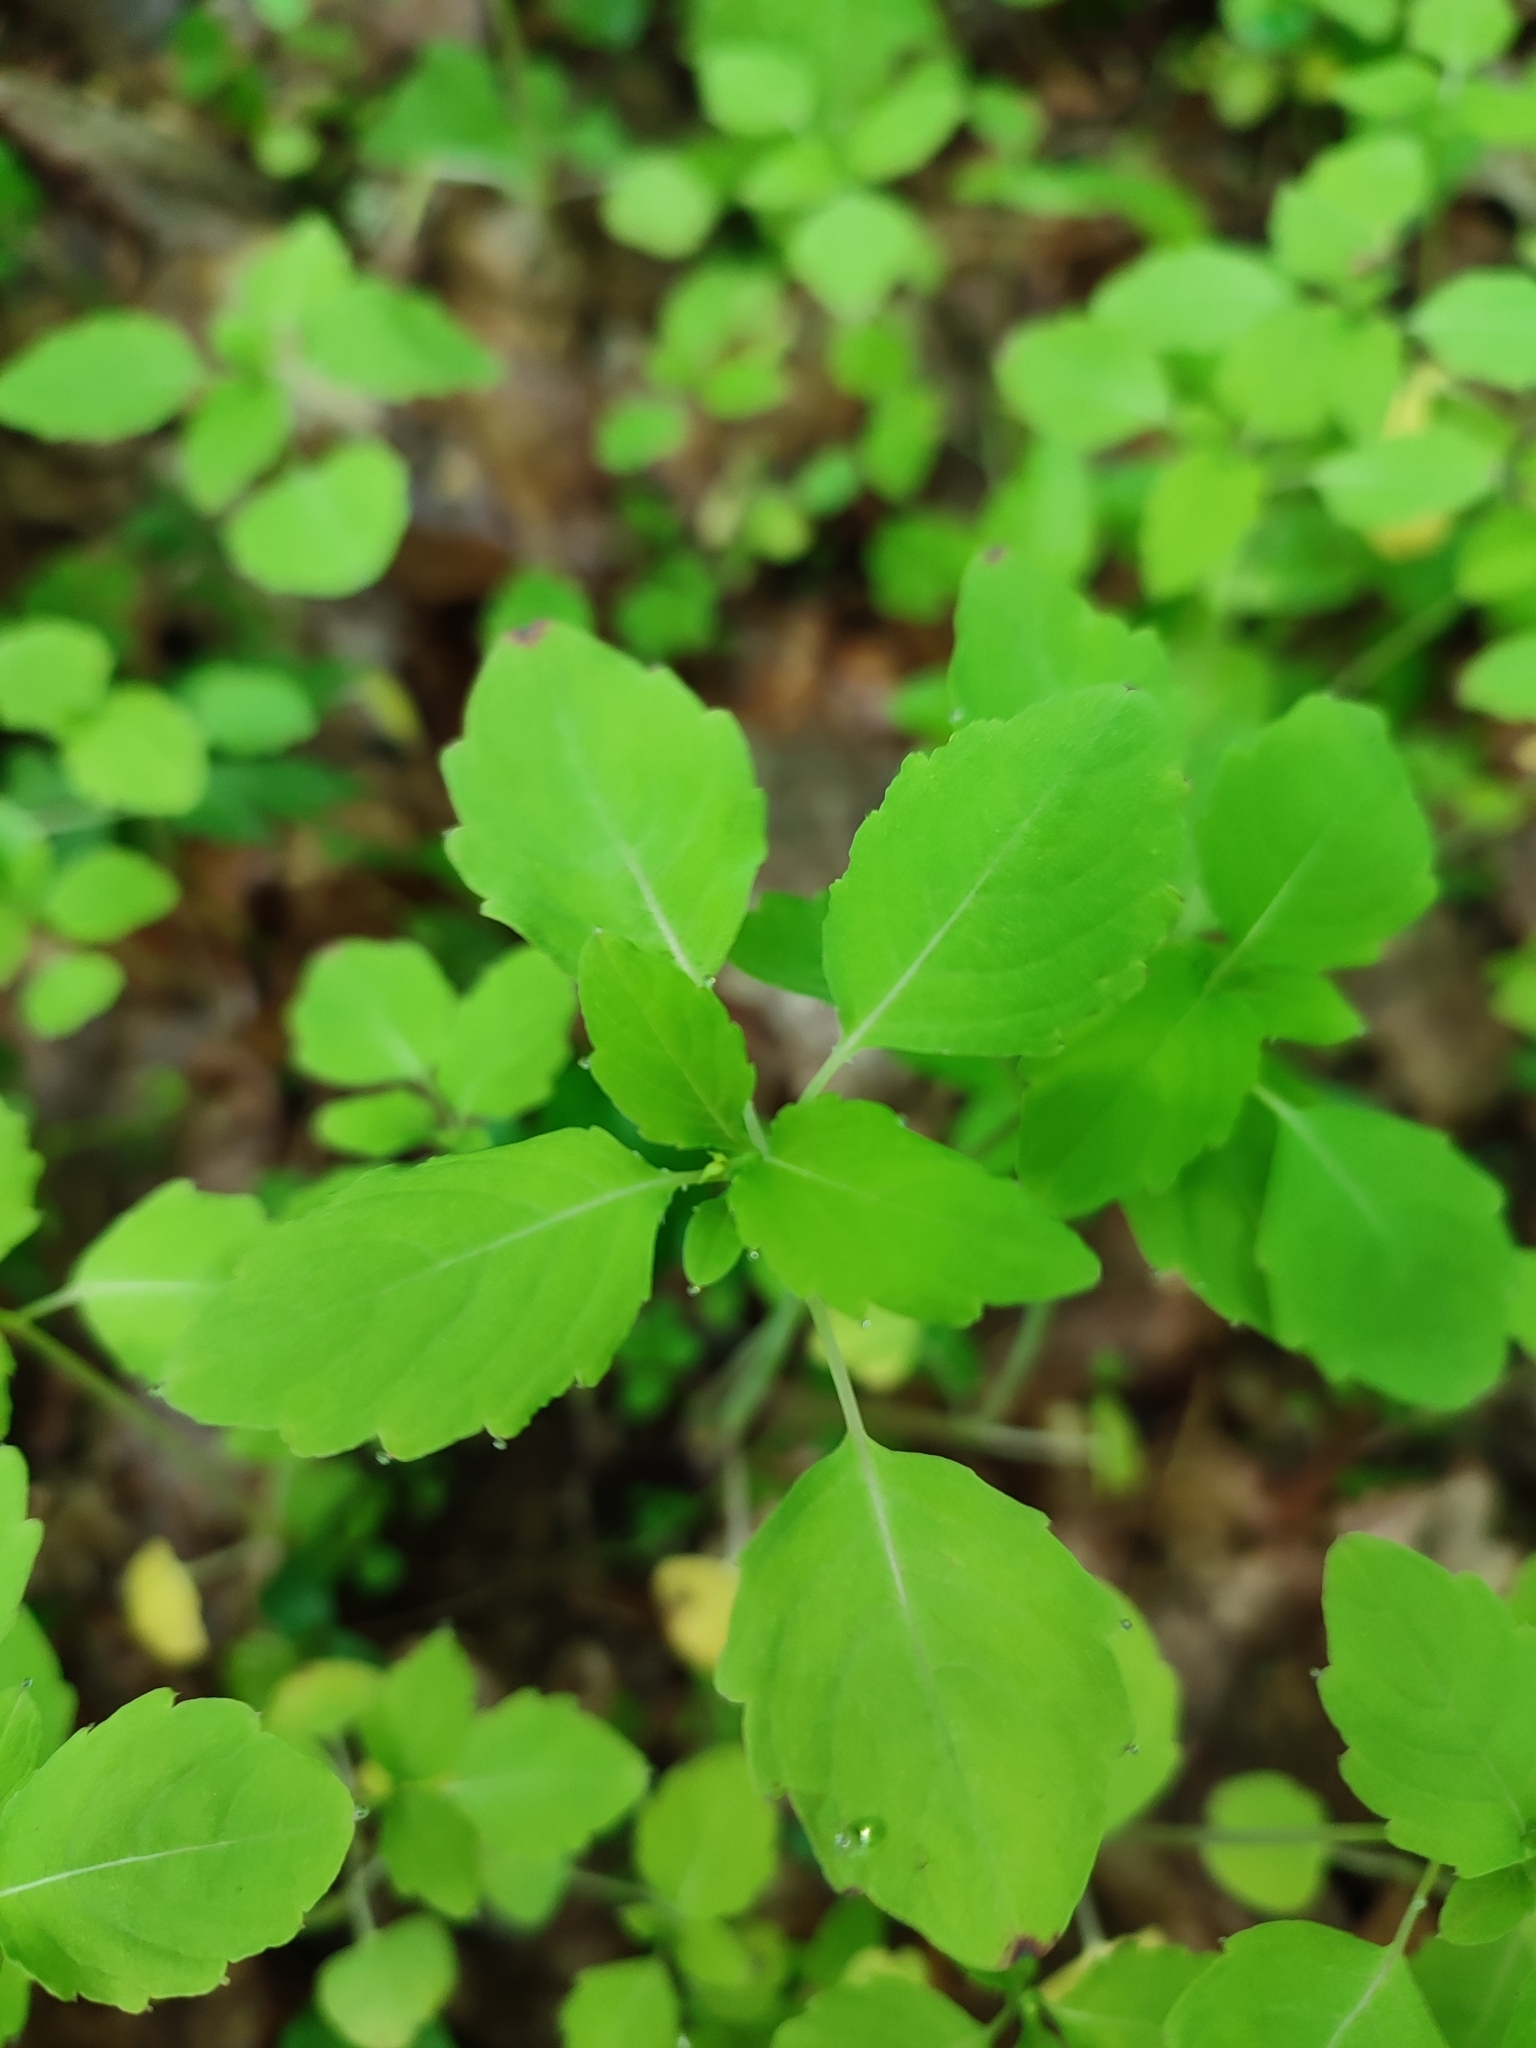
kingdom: Plantae
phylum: Tracheophyta
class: Magnoliopsida
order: Ericales
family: Balsaminaceae
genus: Impatiens
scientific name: Impatiens noli-tangere
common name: Touch-me-not balsam
